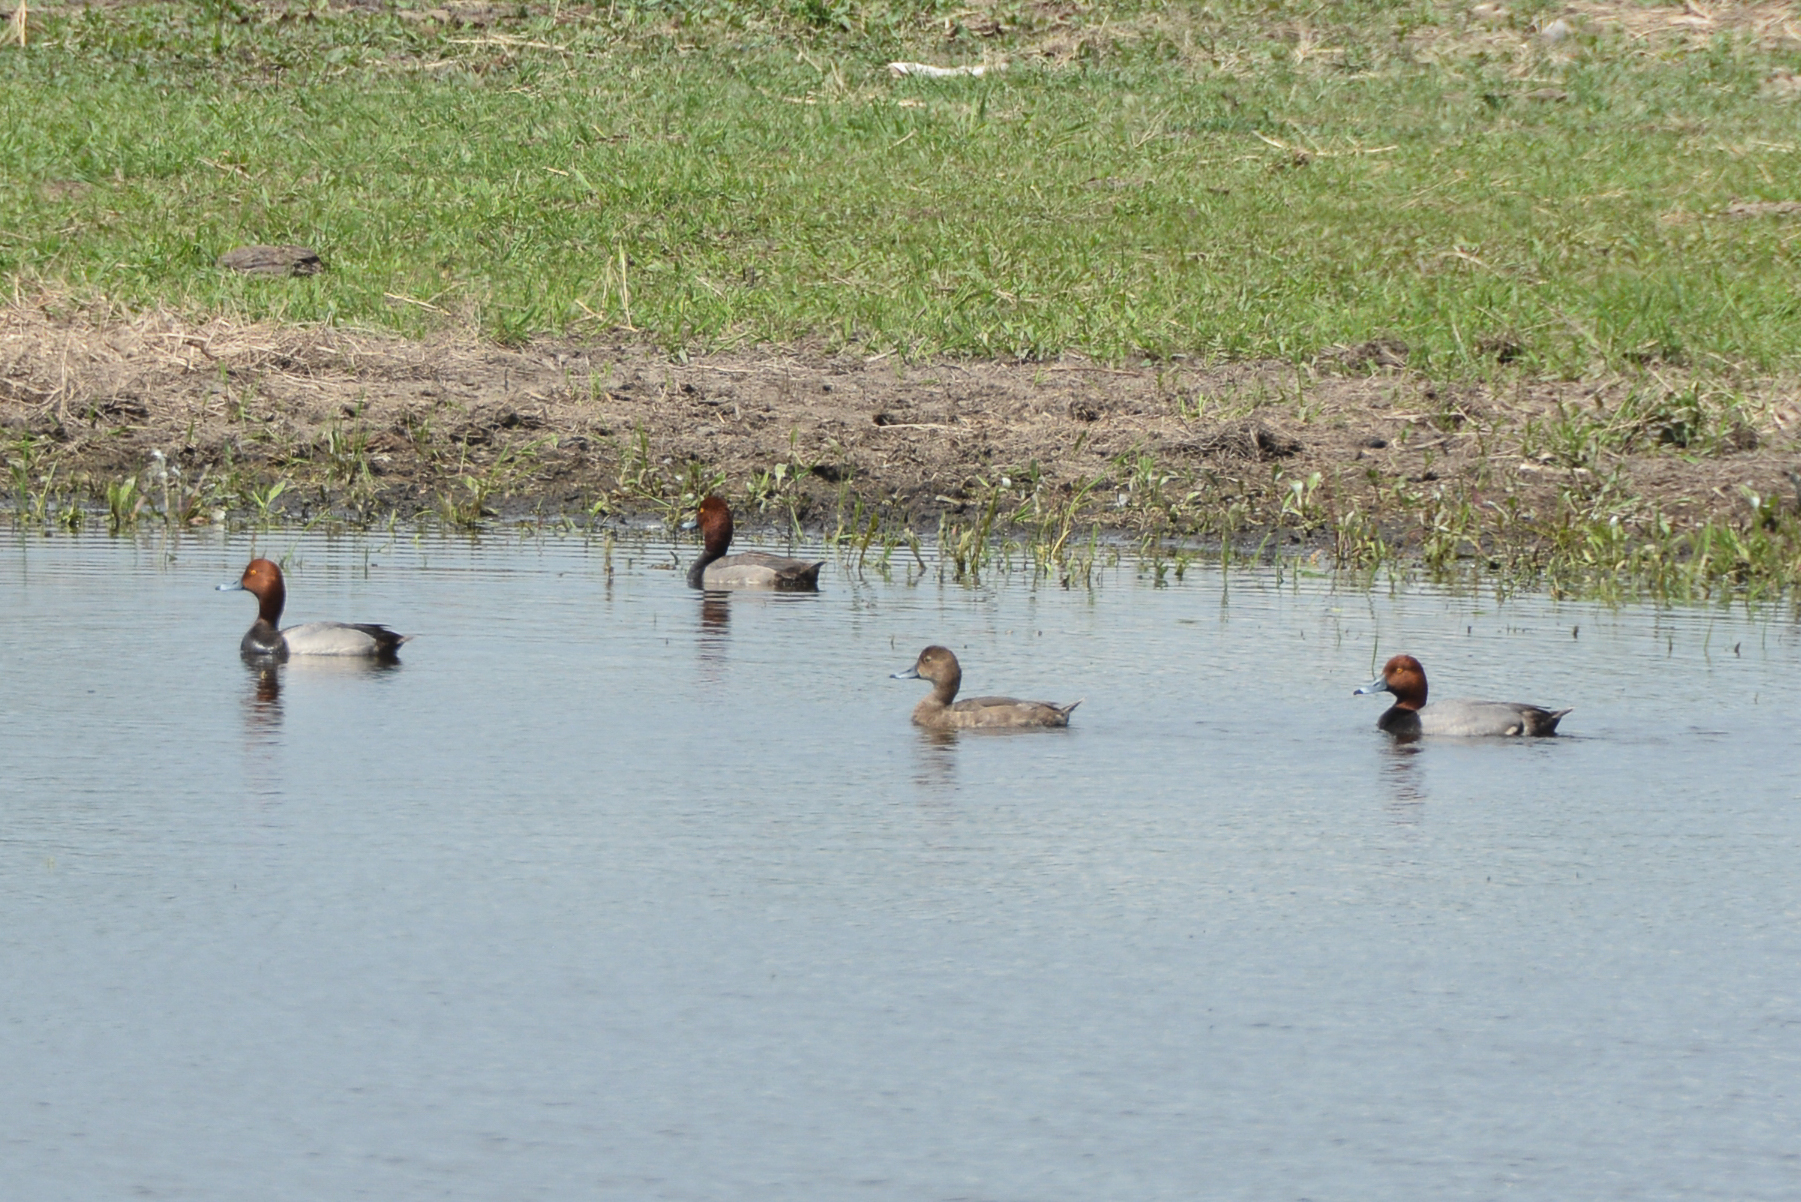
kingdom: Animalia
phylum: Chordata
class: Aves
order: Anseriformes
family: Anatidae
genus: Aythya
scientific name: Aythya americana
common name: Redhead
